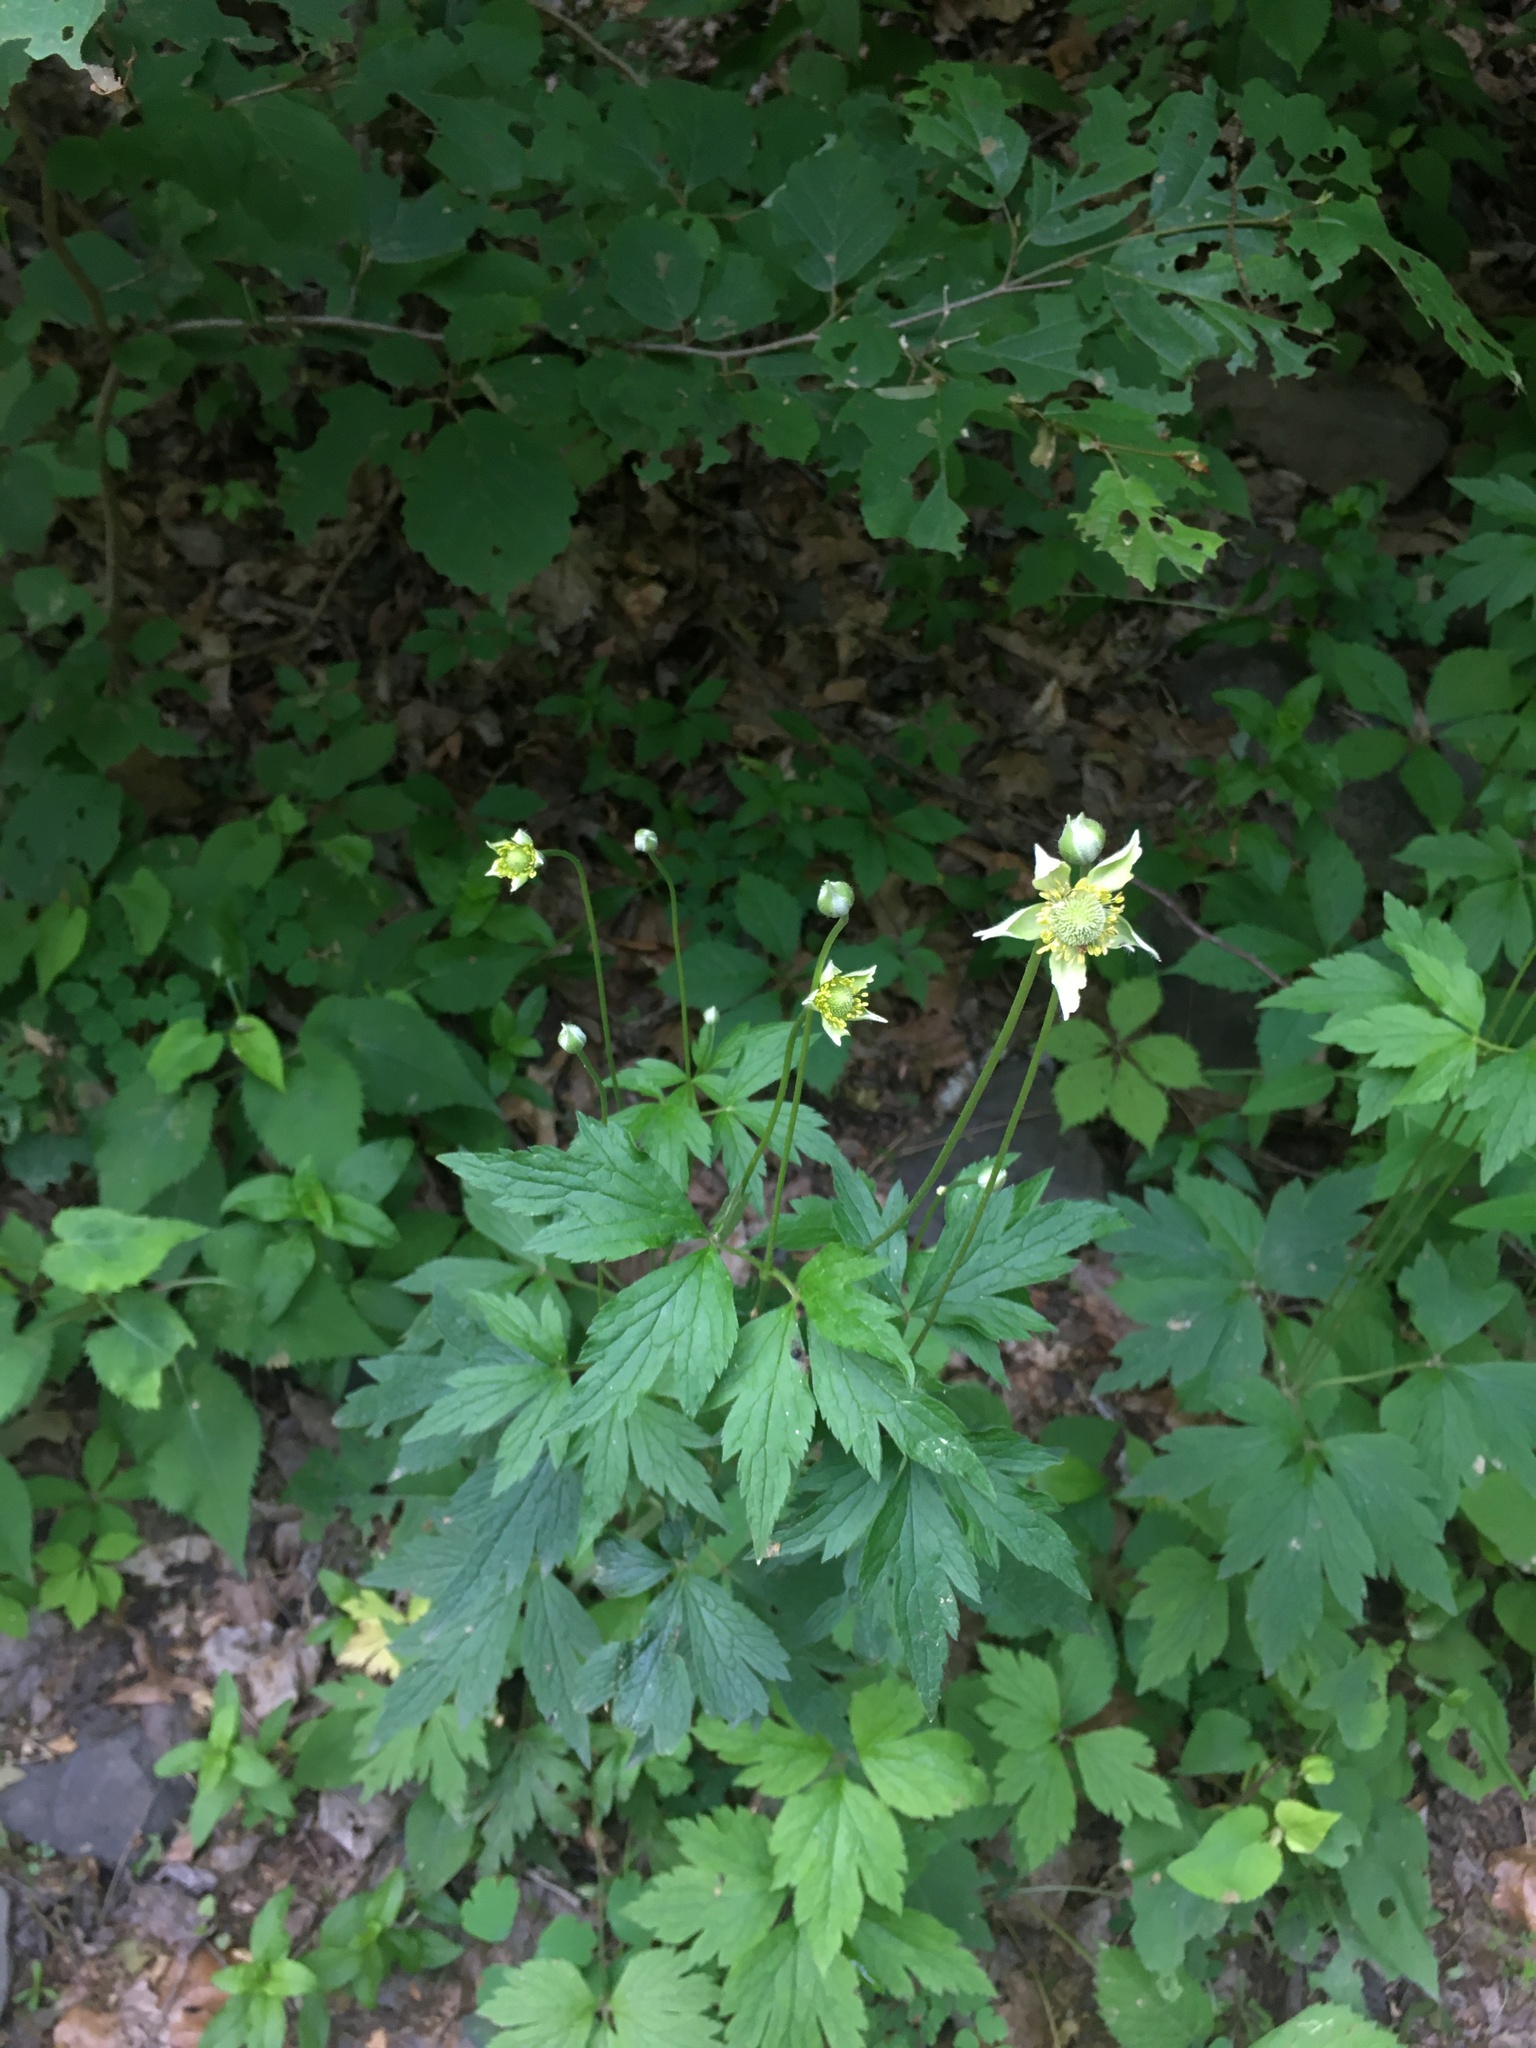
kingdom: Plantae
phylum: Tracheophyta
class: Magnoliopsida
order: Ranunculales
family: Ranunculaceae
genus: Anemone
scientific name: Anemone virginiana
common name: Tall anemone
